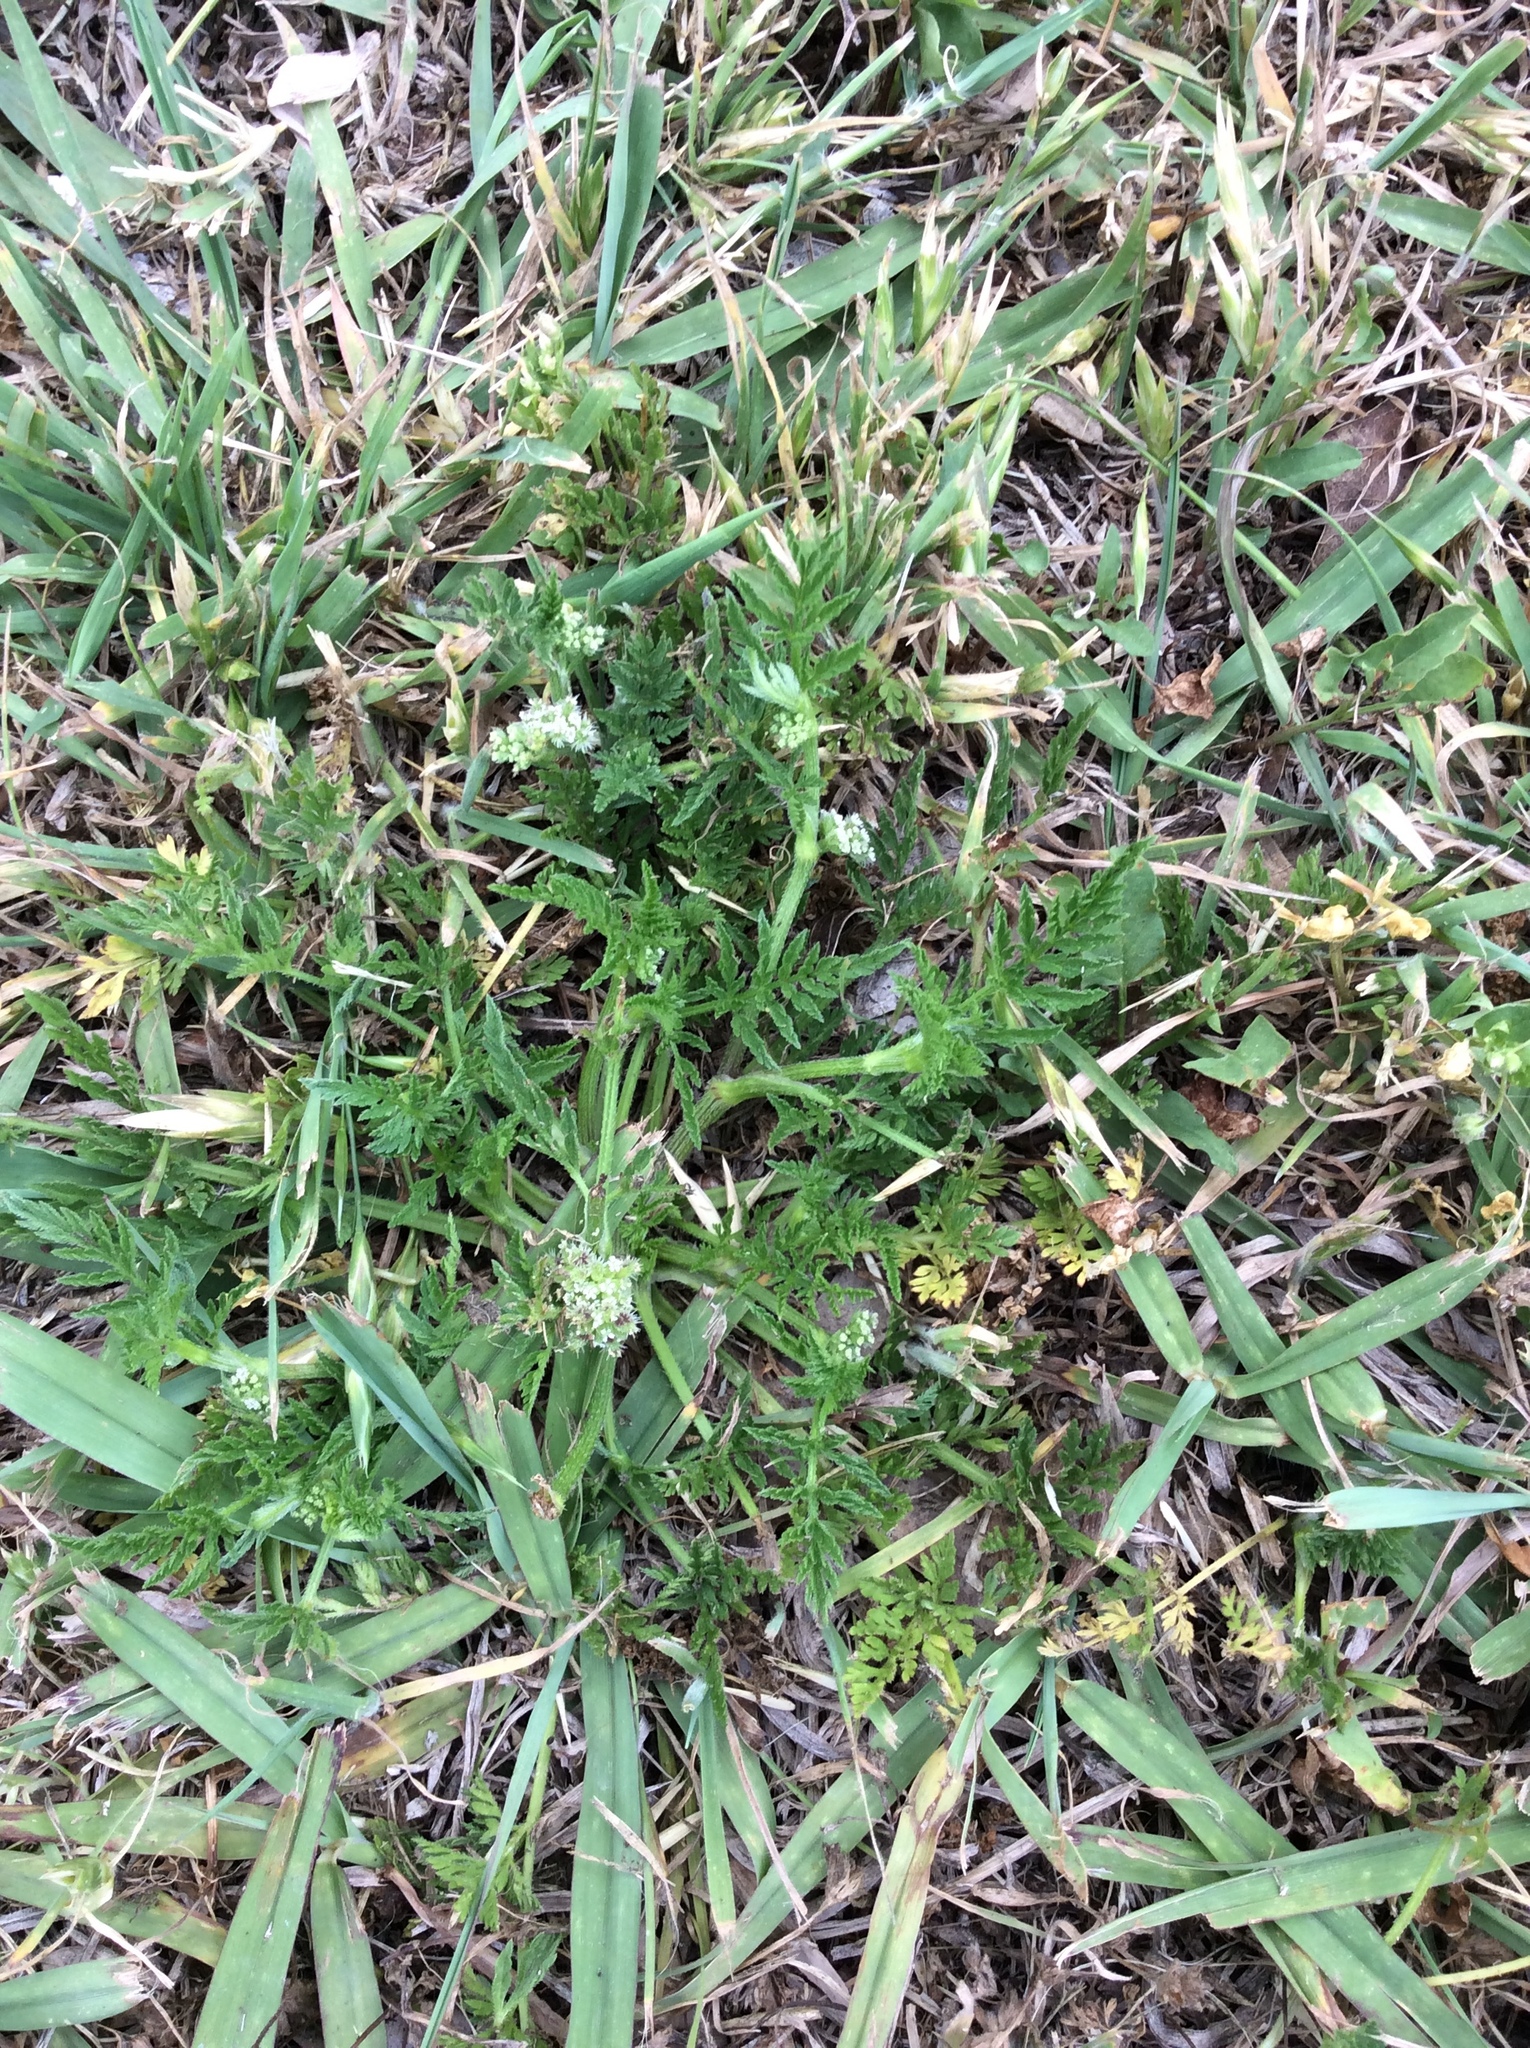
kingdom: Plantae
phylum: Tracheophyta
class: Magnoliopsida
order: Apiales
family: Apiaceae
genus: Torilis
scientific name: Torilis nodosa
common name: Knotted hedge-parsley
